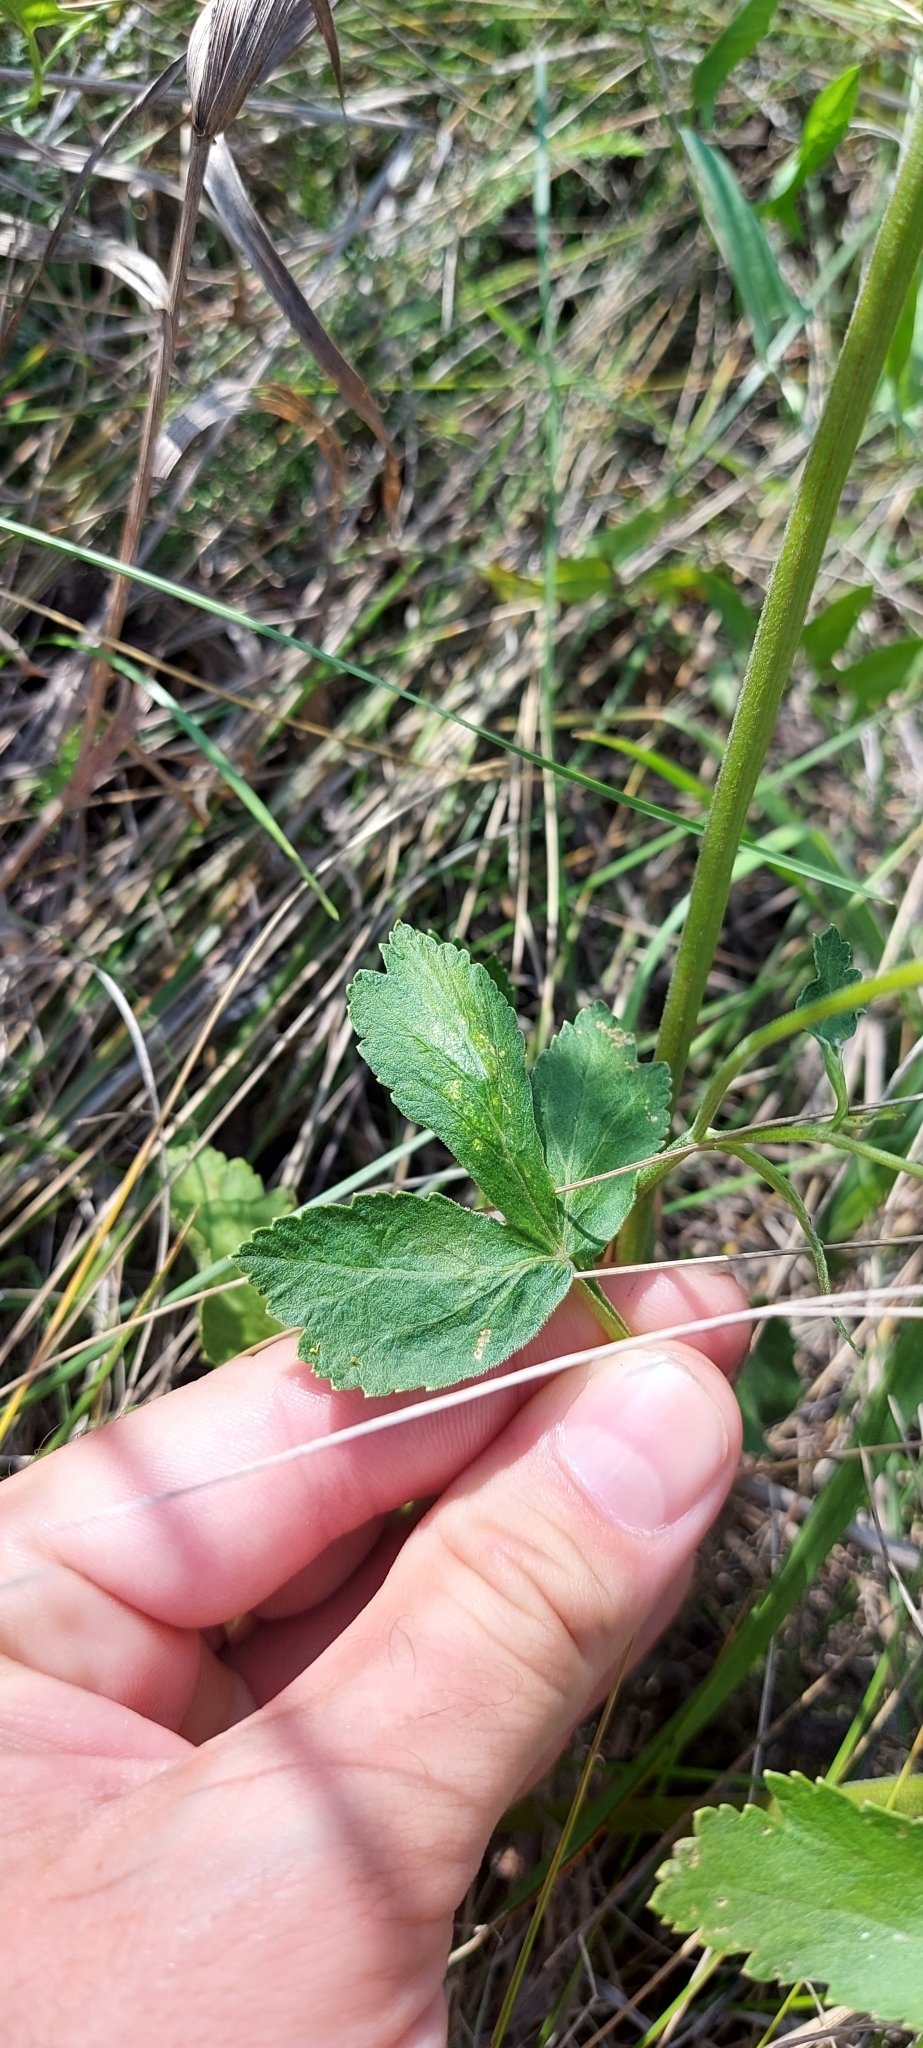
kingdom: Plantae
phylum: Tracheophyta
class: Magnoliopsida
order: Apiales
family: Apiaceae
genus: Pastinaca
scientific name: Pastinaca sativa
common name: Wild parsnip
